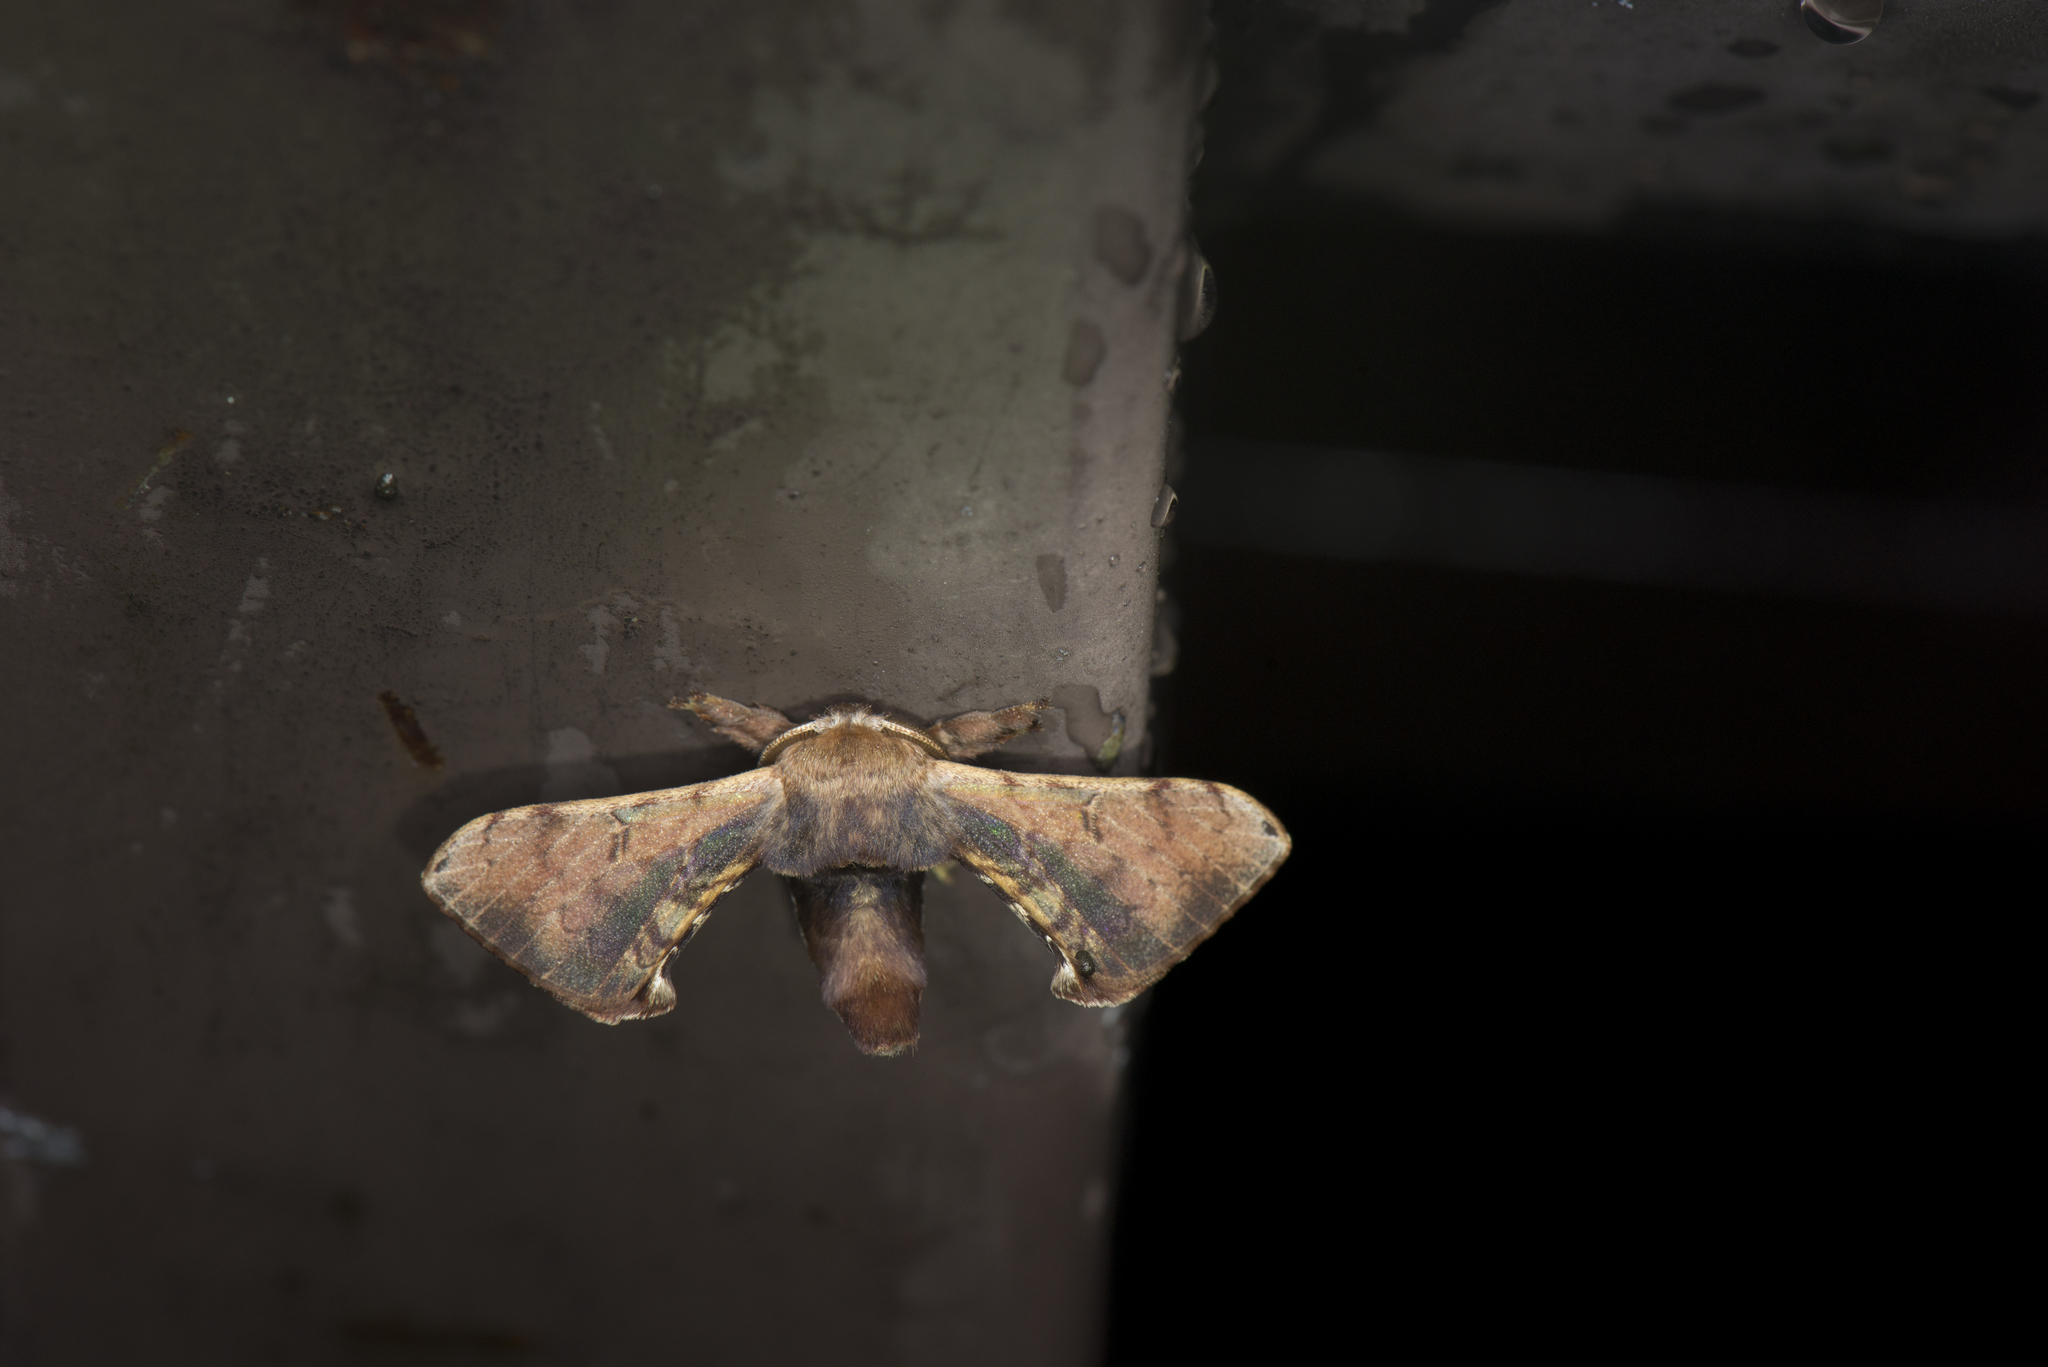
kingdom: Animalia
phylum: Arthropoda
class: Insecta
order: Lepidoptera
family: Bombycidae
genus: Triuncina
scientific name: Triuncina brunnea
